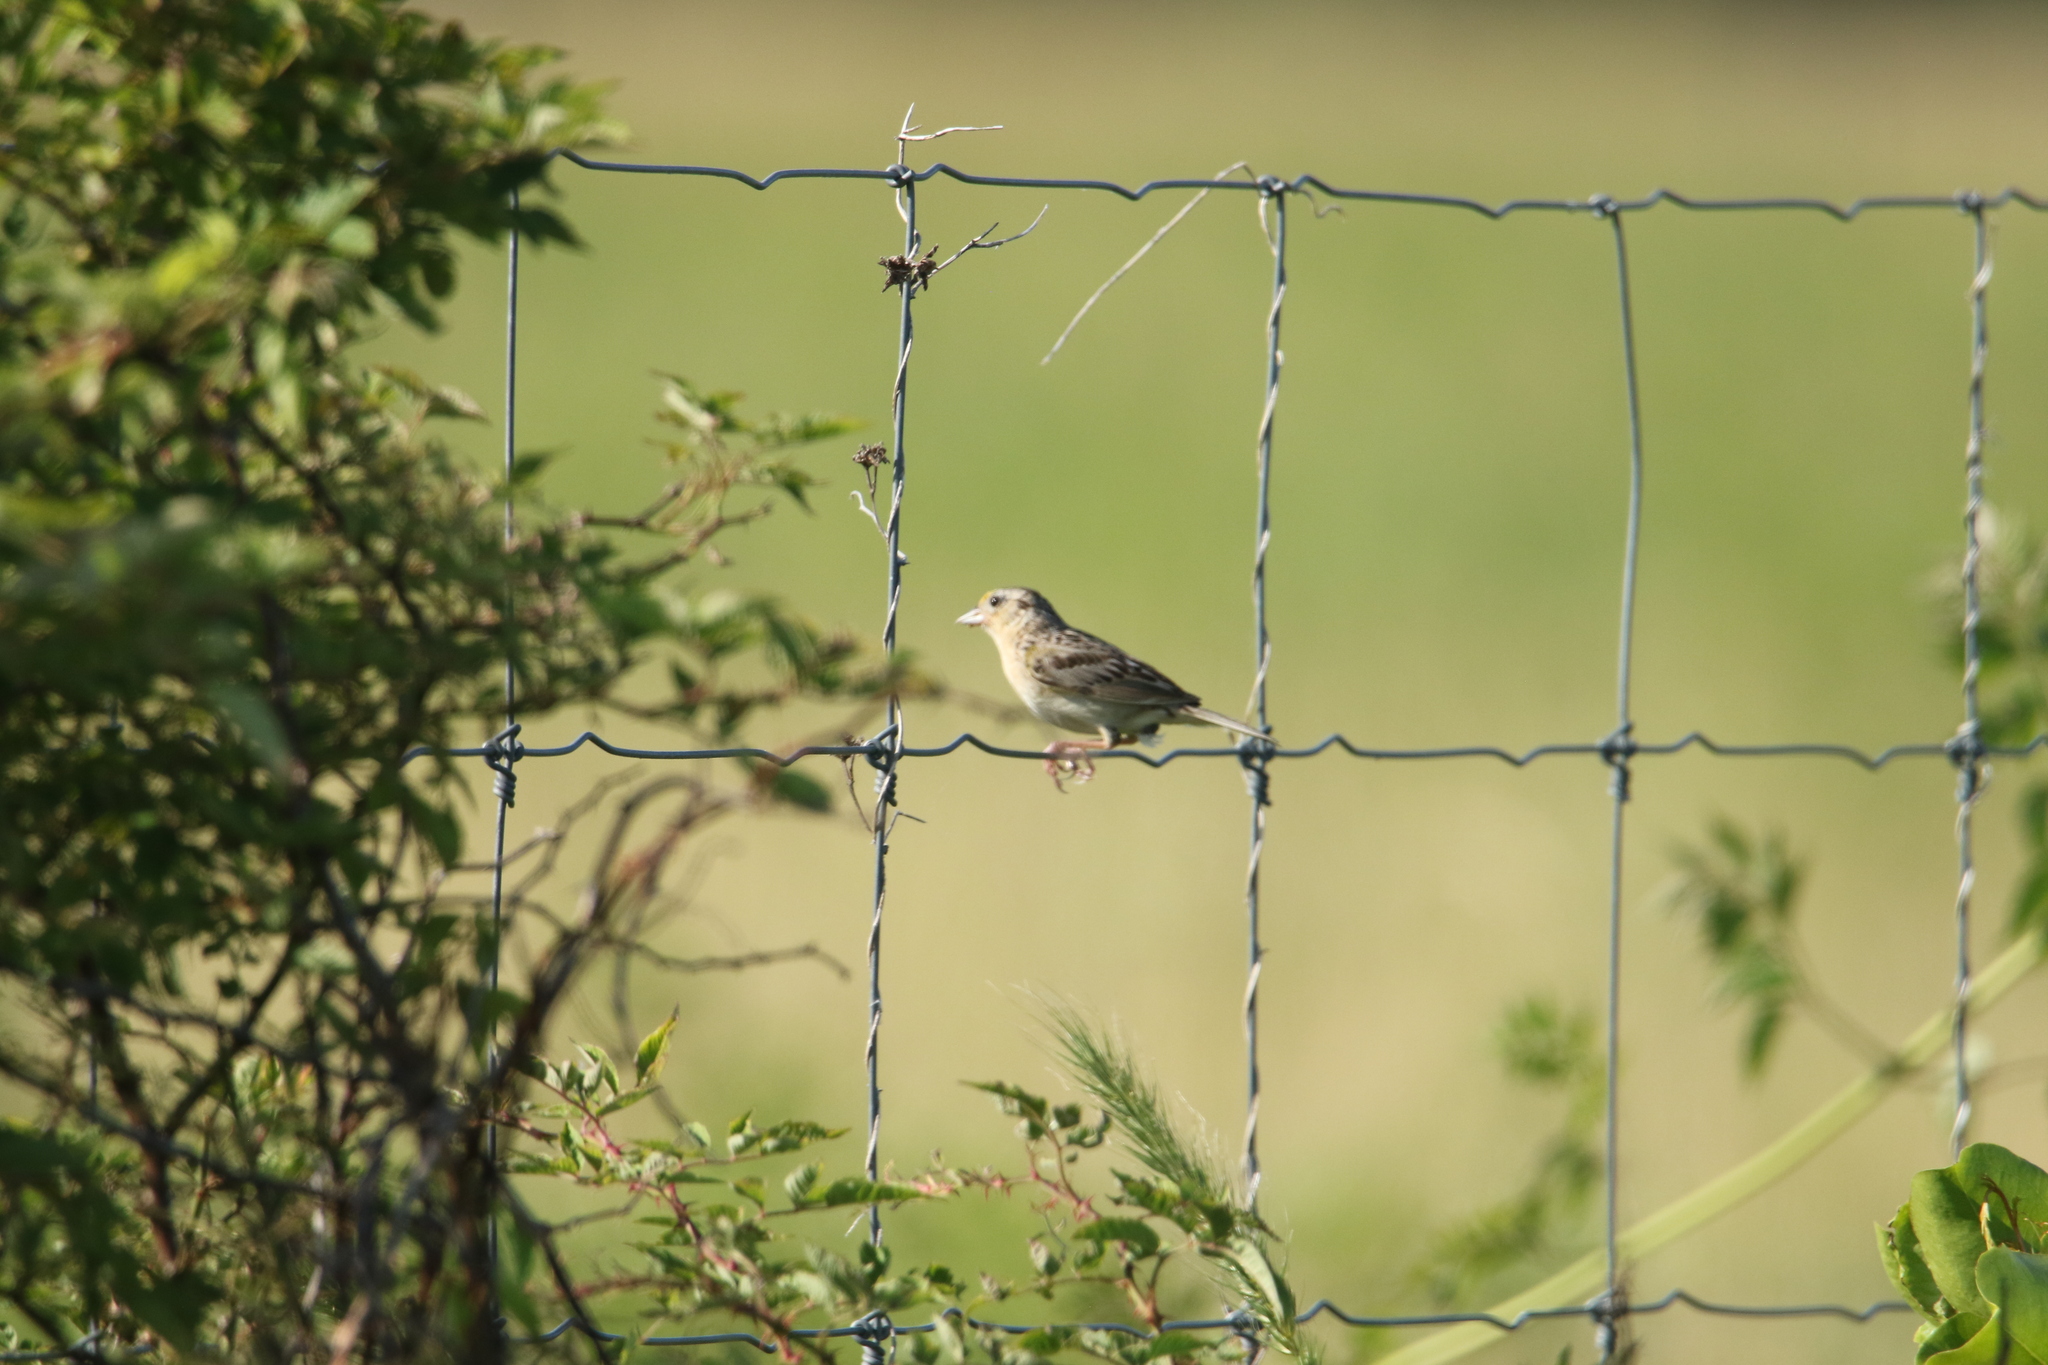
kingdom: Animalia
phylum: Chordata
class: Aves
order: Passeriformes
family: Passerellidae
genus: Ammodramus
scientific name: Ammodramus savannarum
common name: Grasshopper sparrow
